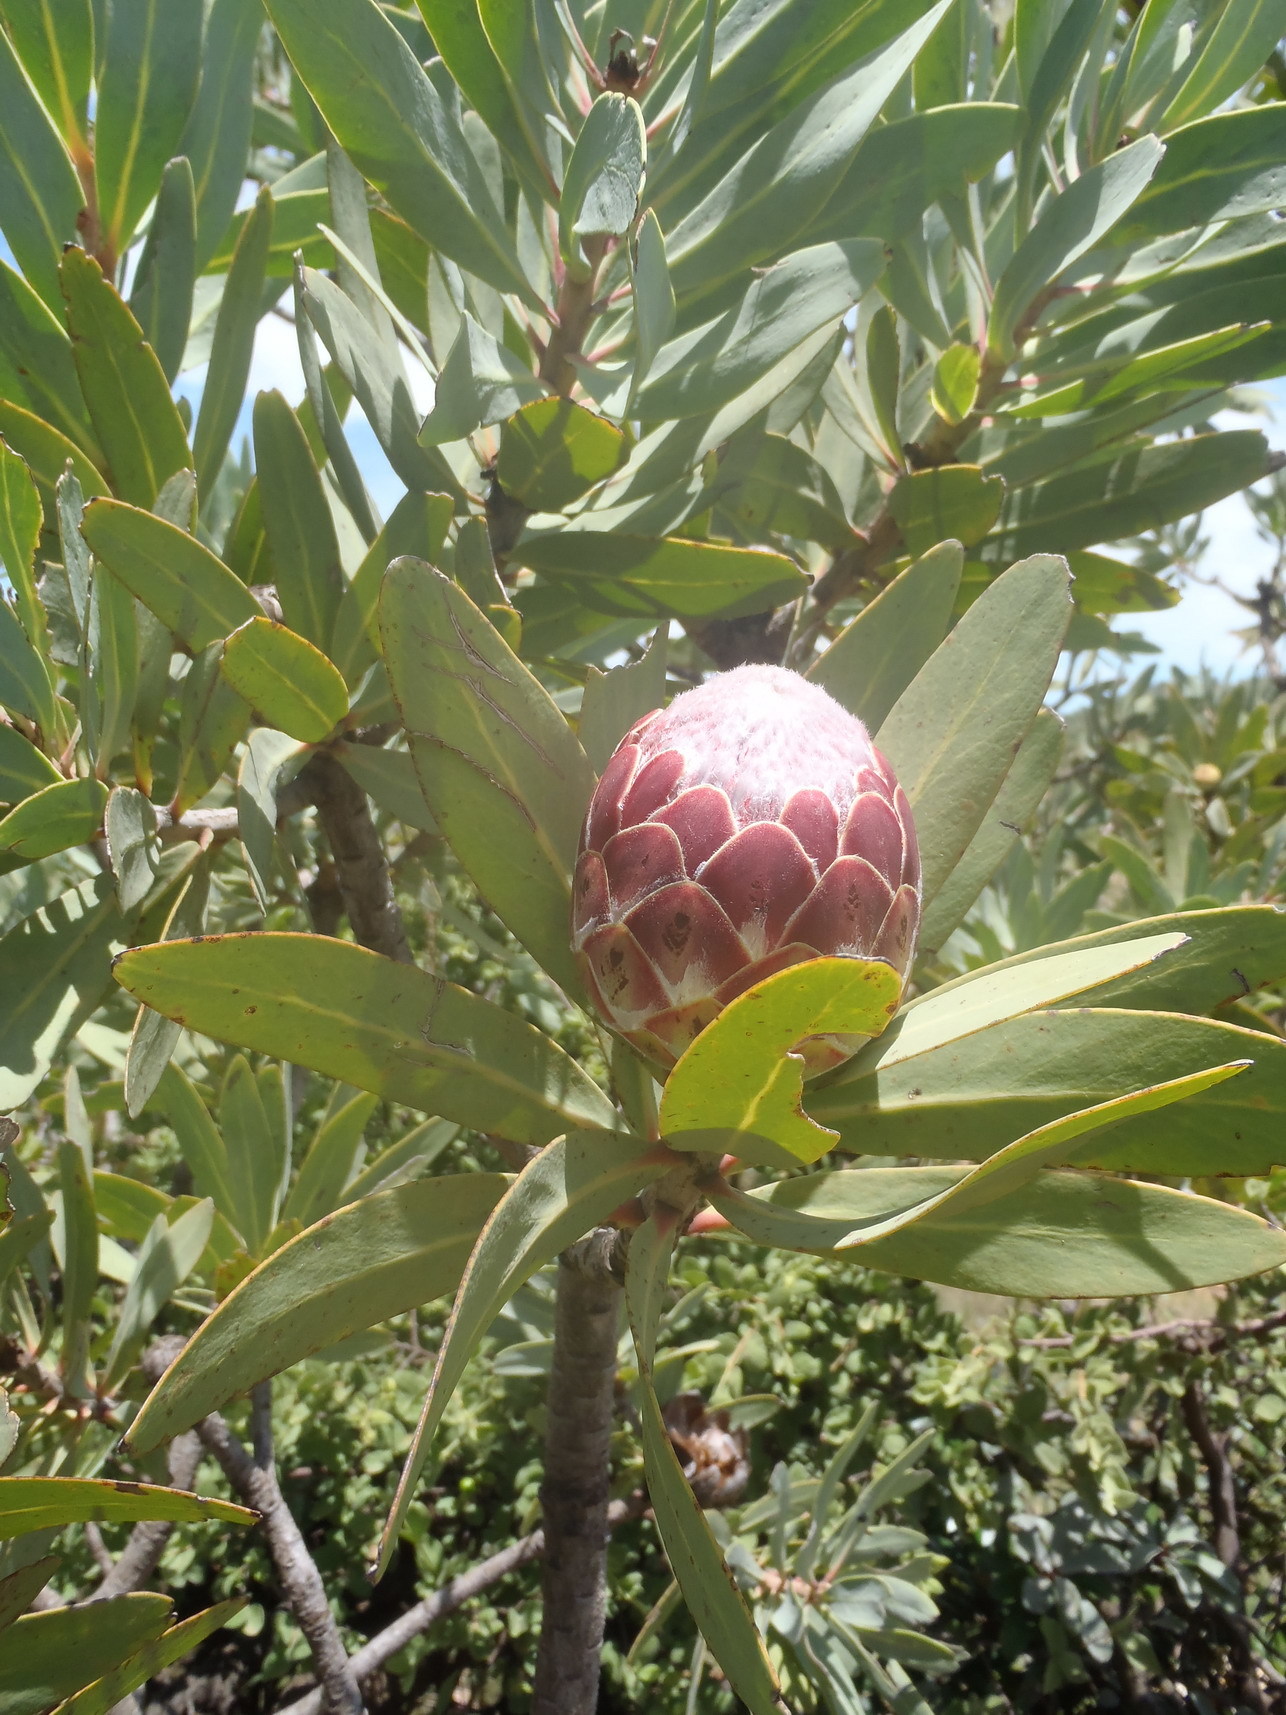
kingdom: Plantae
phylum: Tracheophyta
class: Magnoliopsida
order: Proteales
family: Proteaceae
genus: Protea
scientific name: Protea caffra
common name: Common sugarbush
